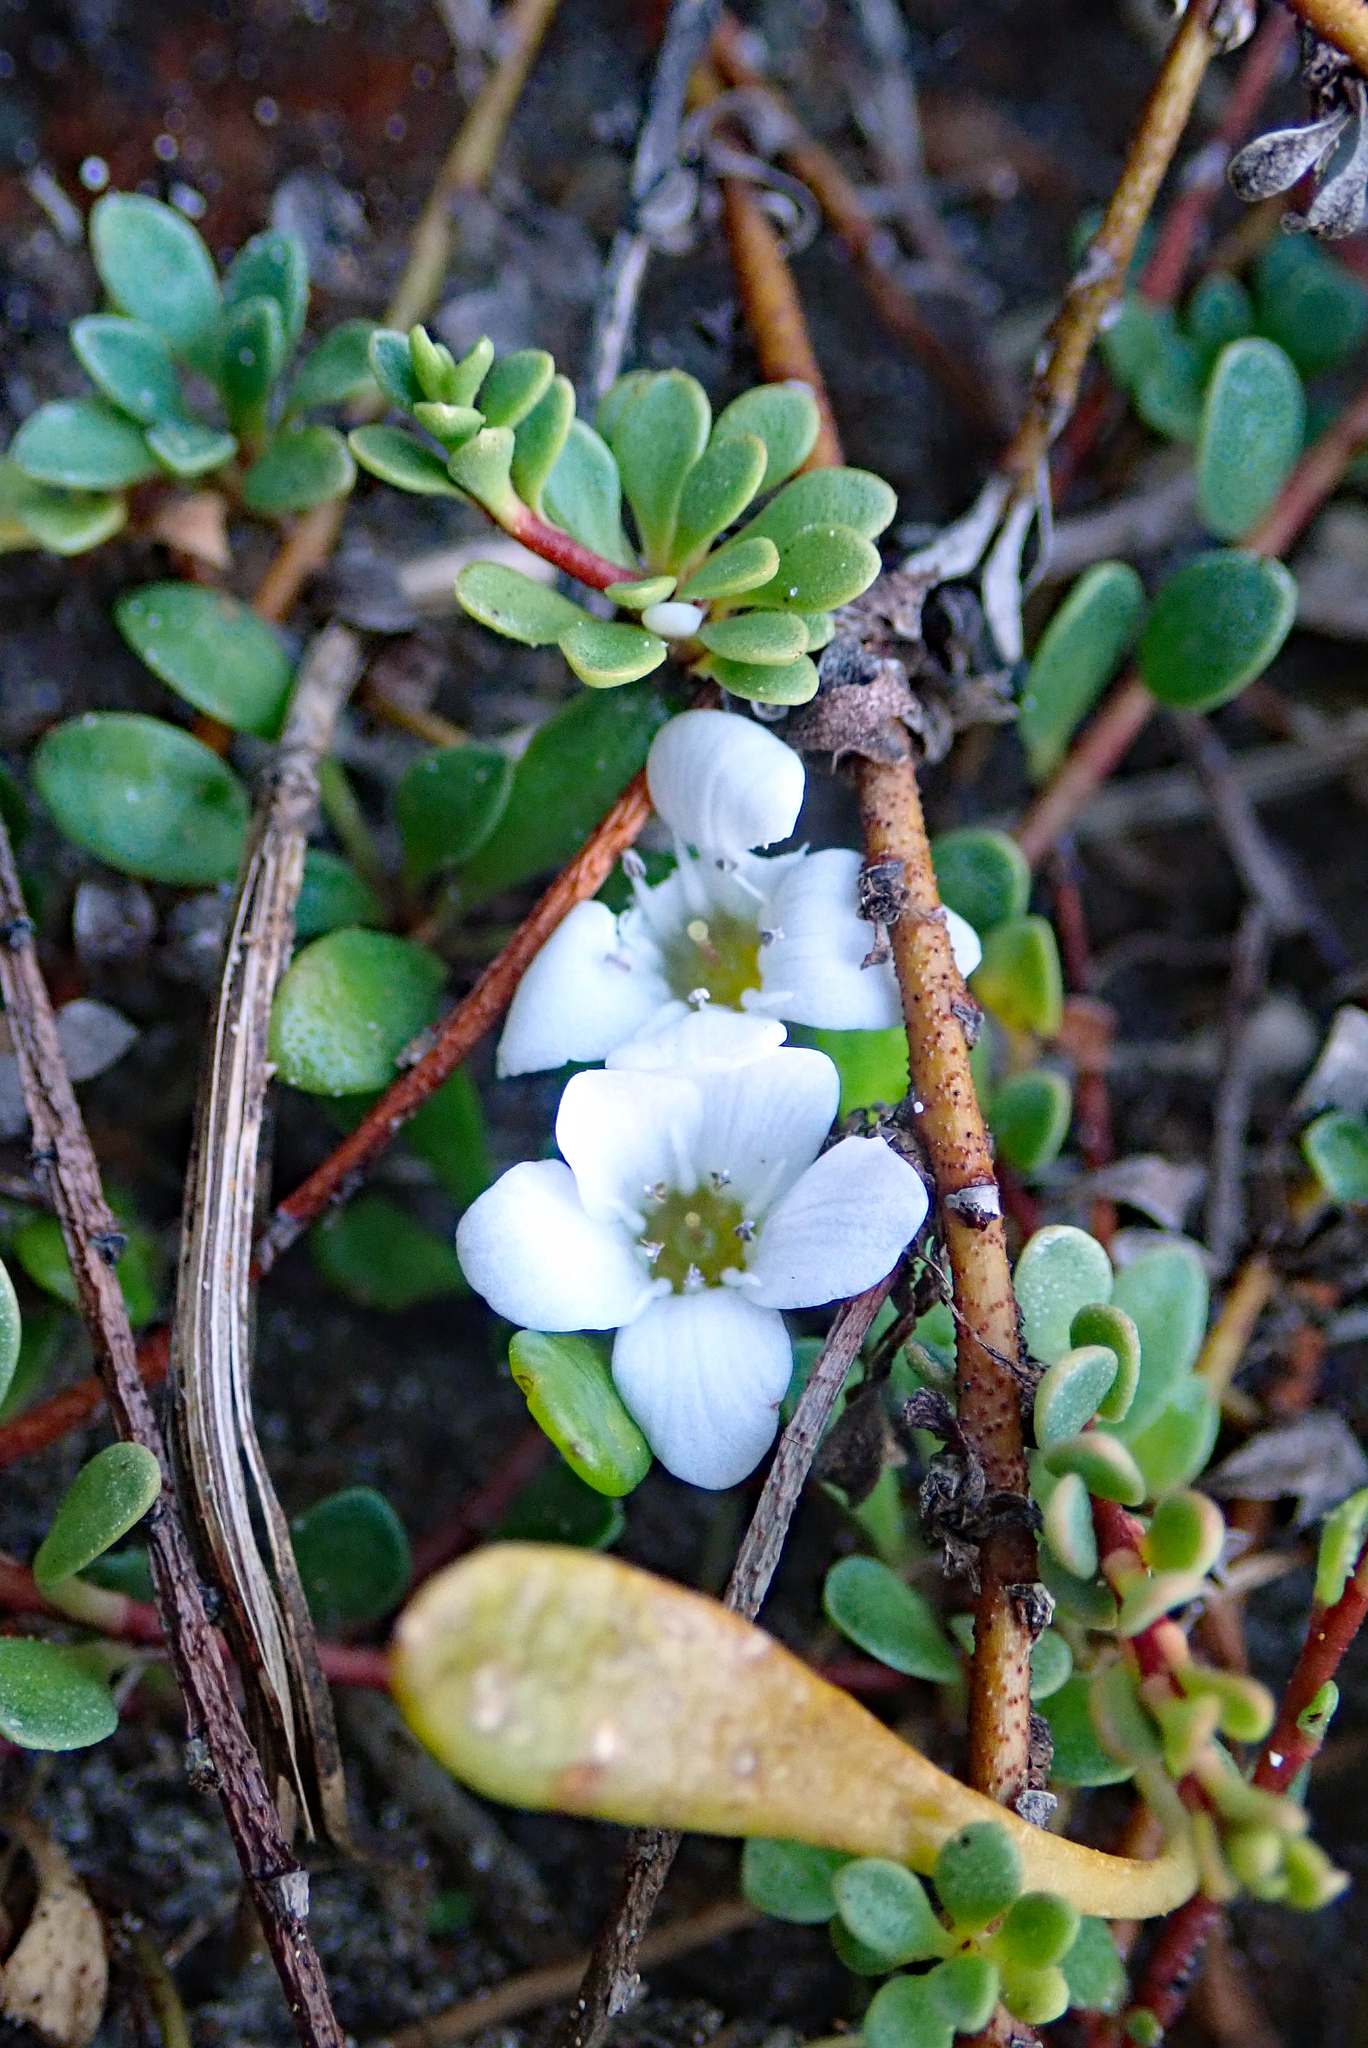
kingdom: Plantae
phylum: Tracheophyta
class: Magnoliopsida
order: Ericales
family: Primulaceae
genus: Samolus
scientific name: Samolus repens
